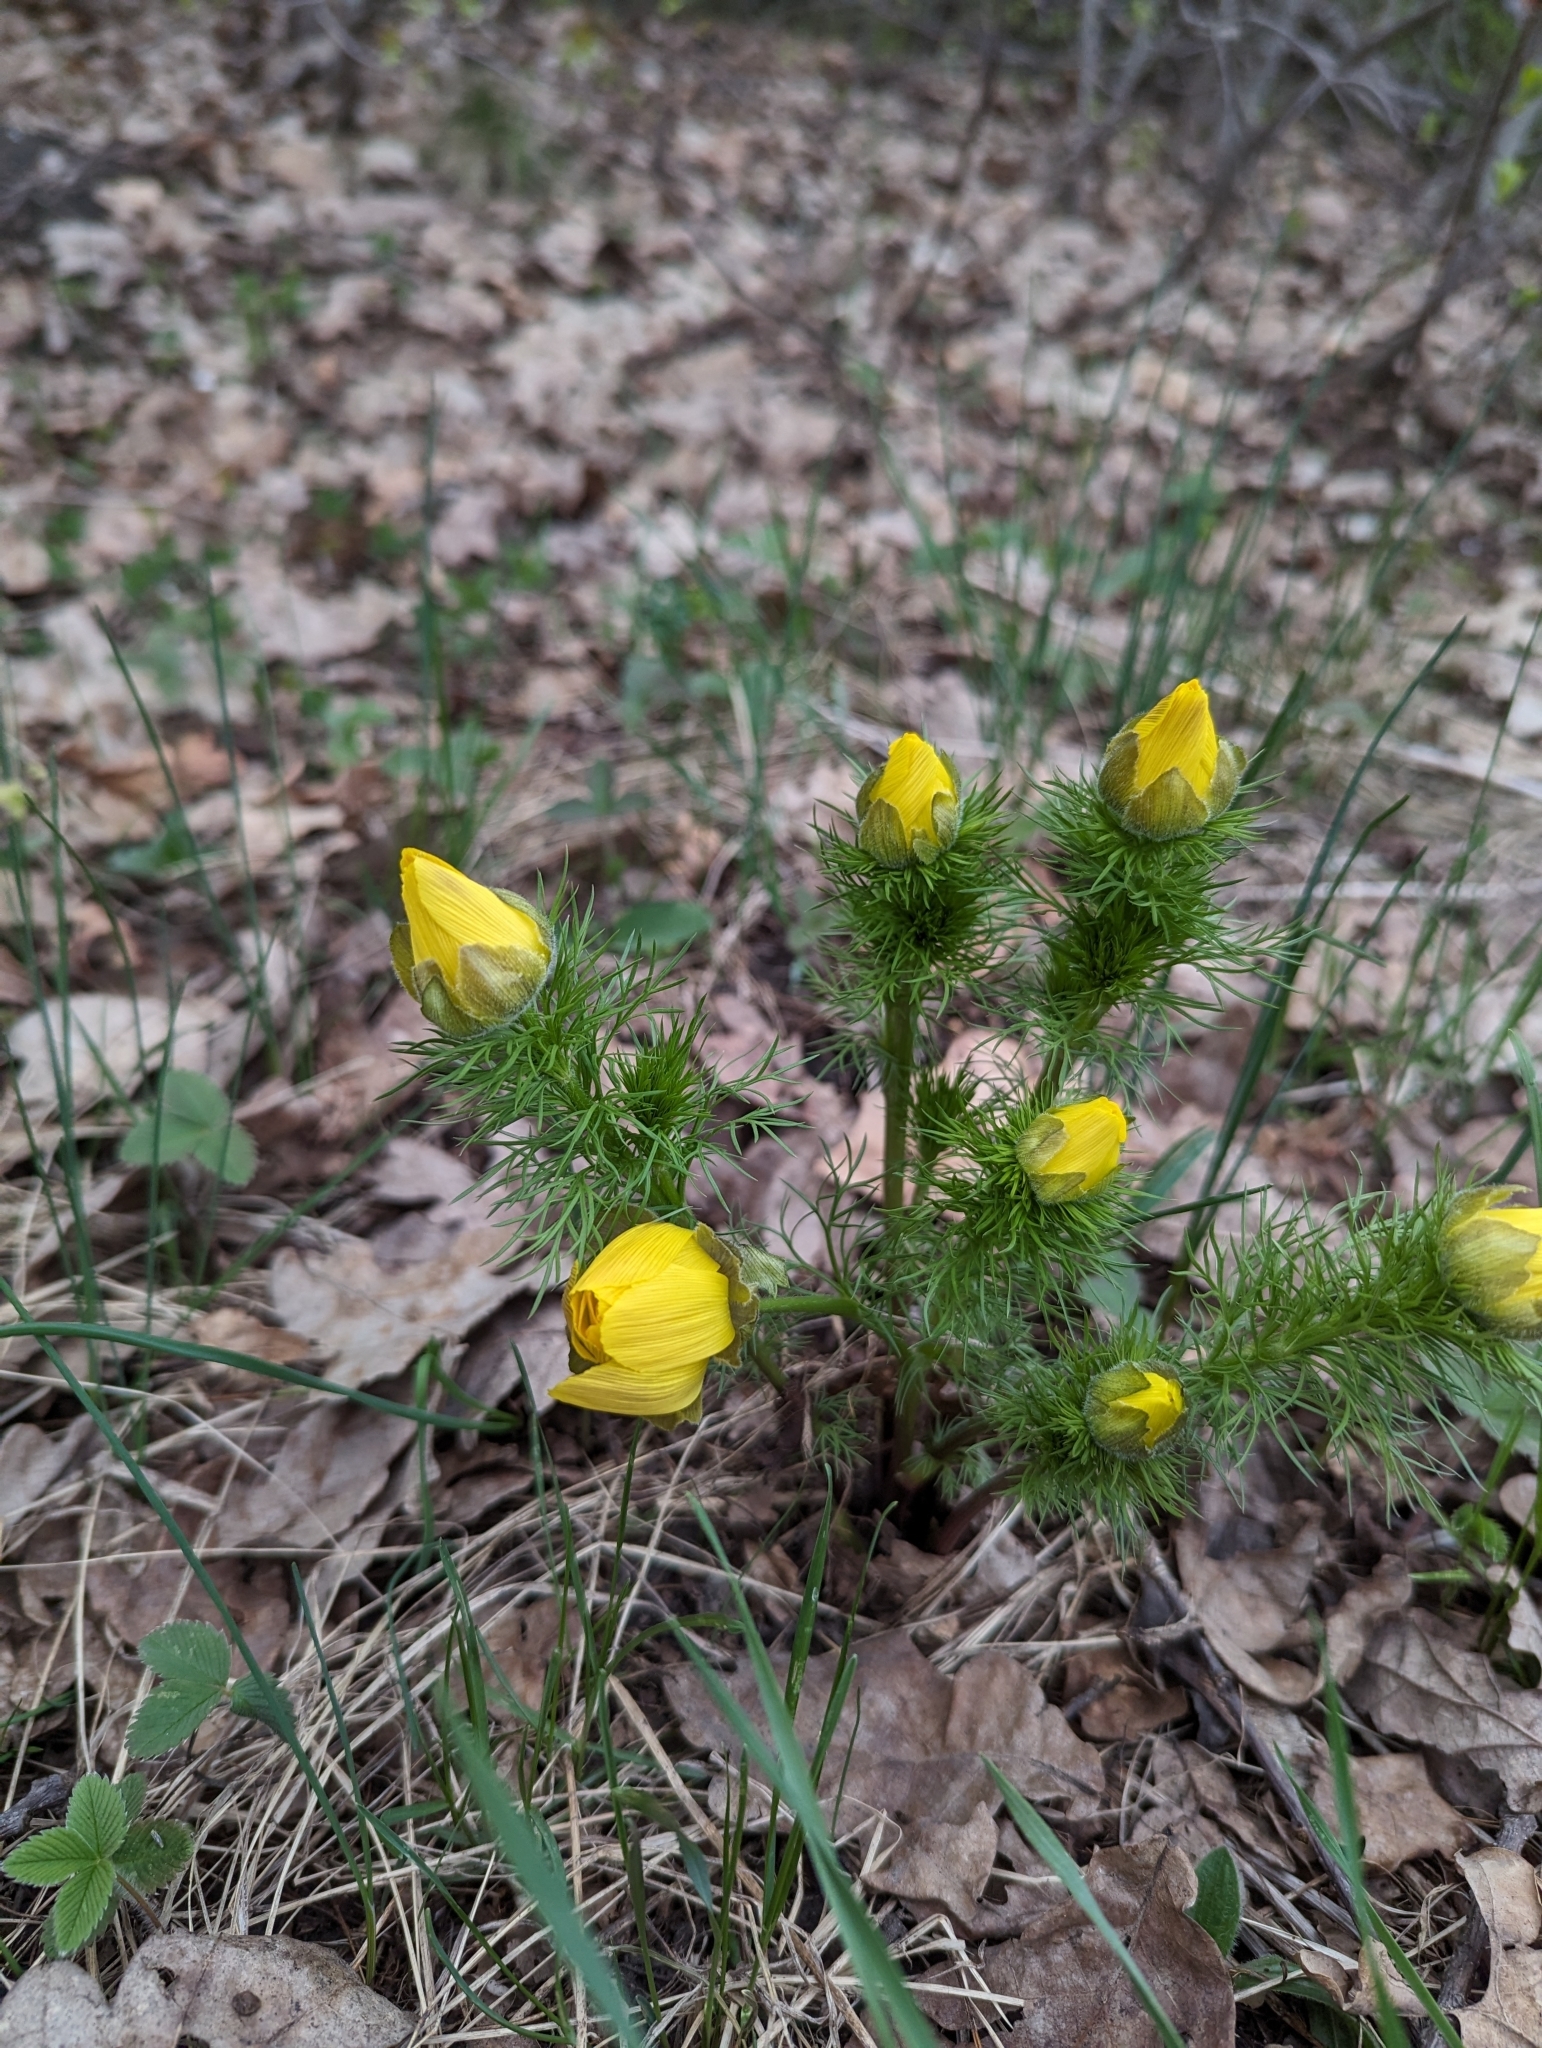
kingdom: Plantae
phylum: Tracheophyta
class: Magnoliopsida
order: Ranunculales
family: Ranunculaceae
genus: Adonis
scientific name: Adonis vernalis
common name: Yellow pheasants-eye
